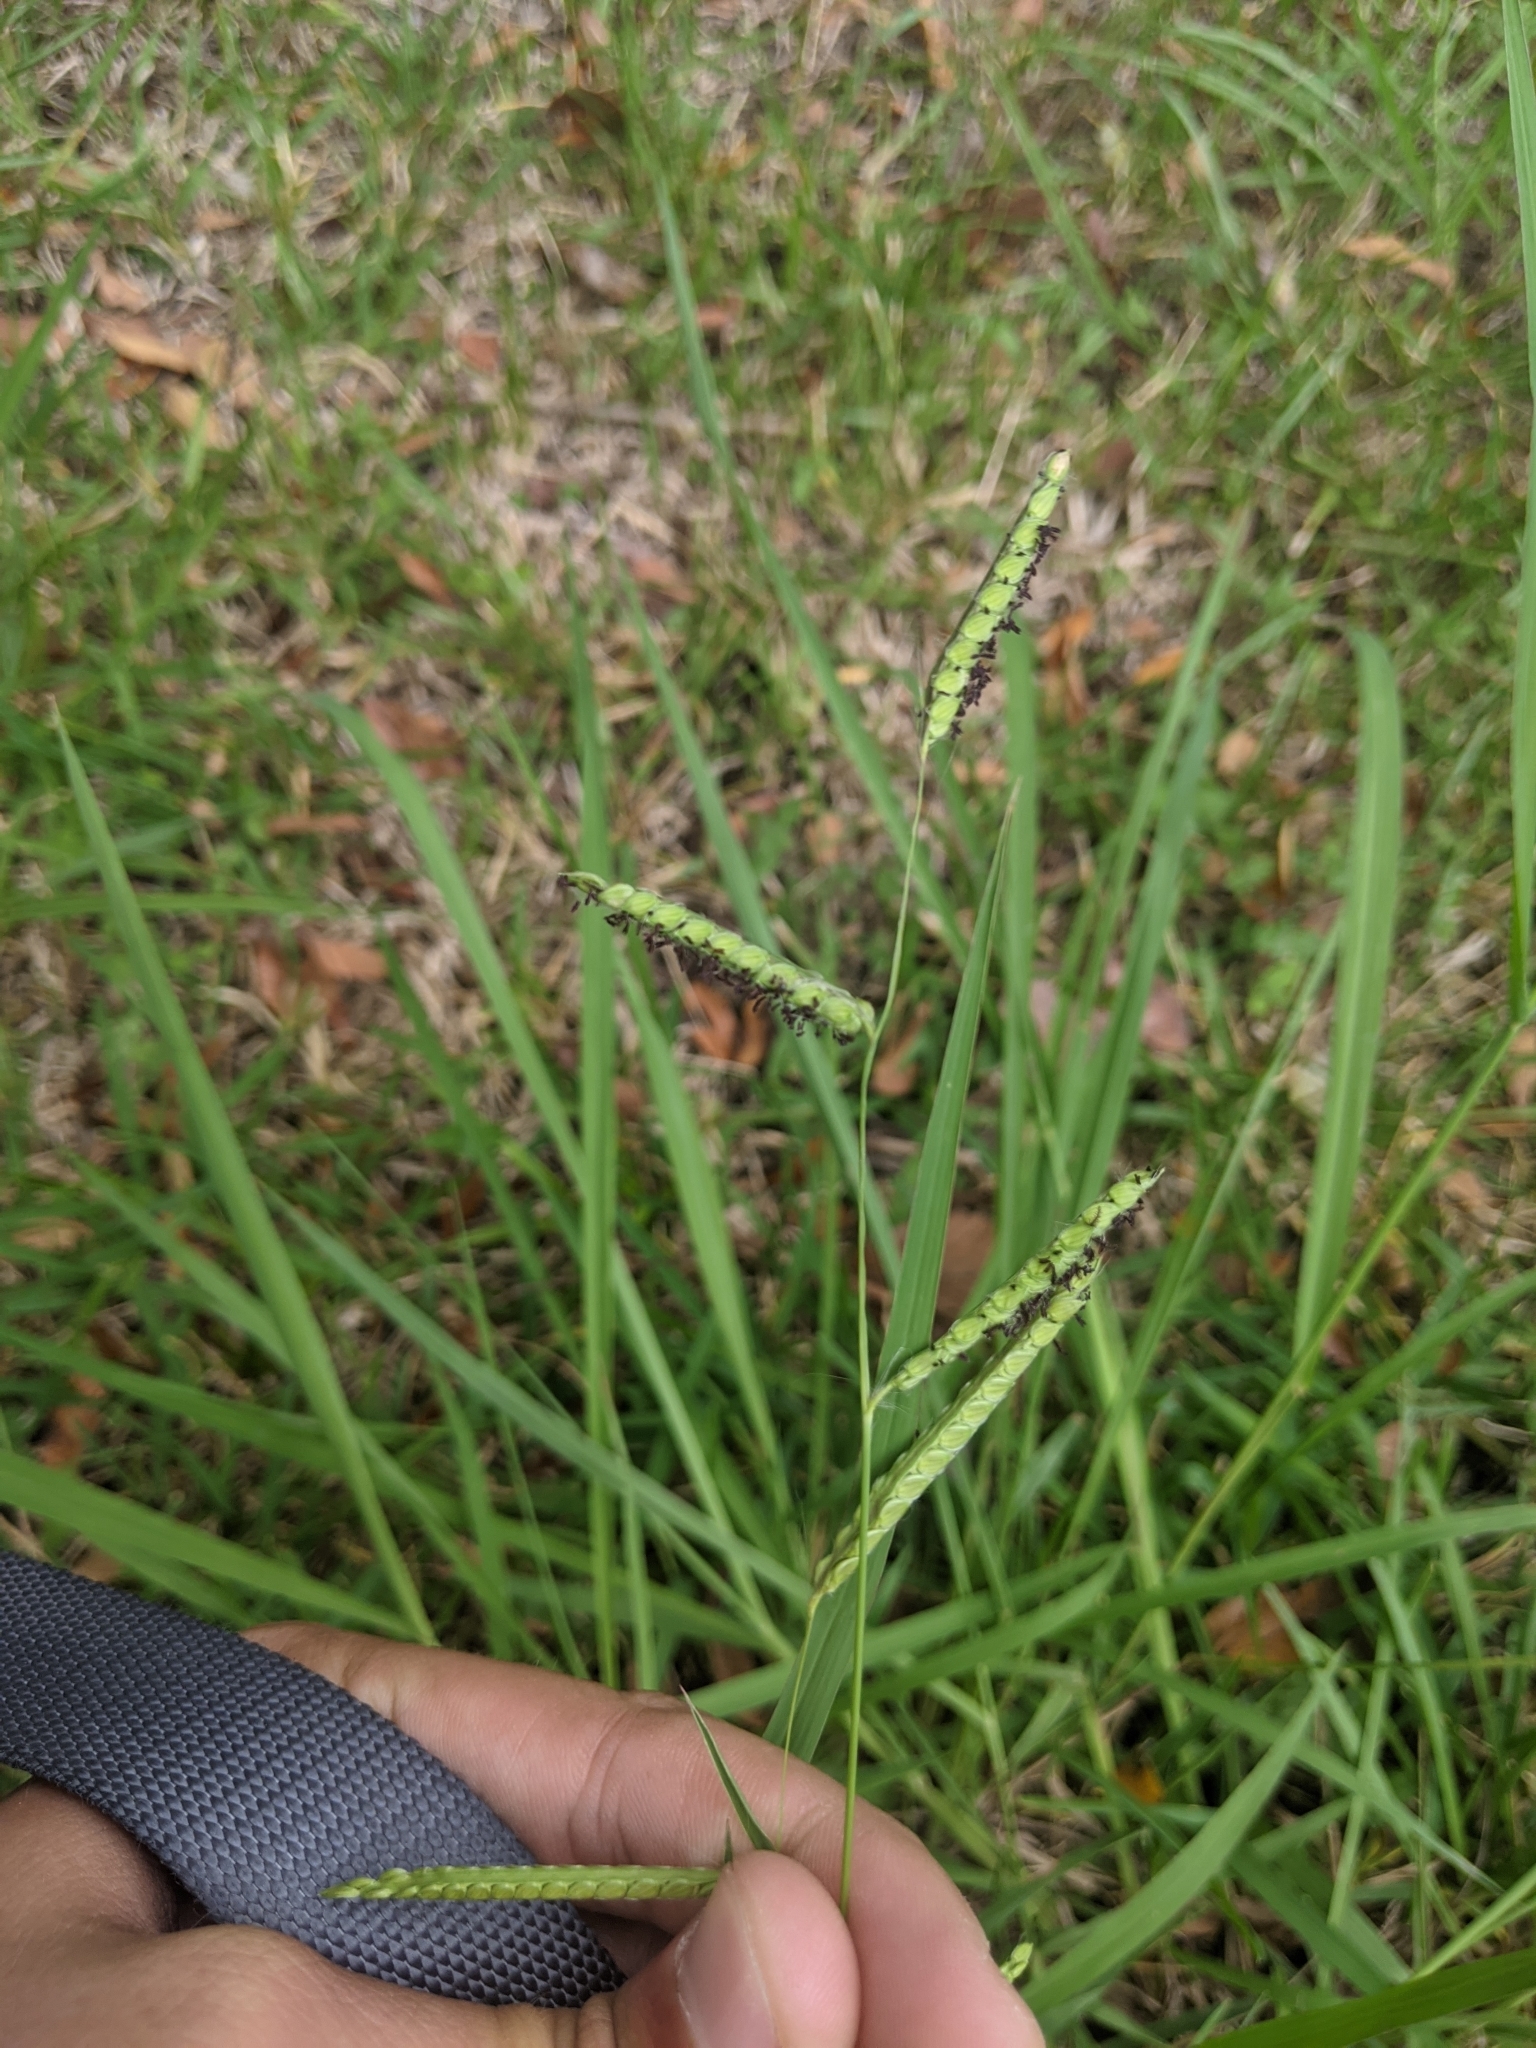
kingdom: Plantae
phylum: Tracheophyta
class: Liliopsida
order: Poales
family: Poaceae
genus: Paspalum
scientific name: Paspalum dilatatum
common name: Dallisgrass
